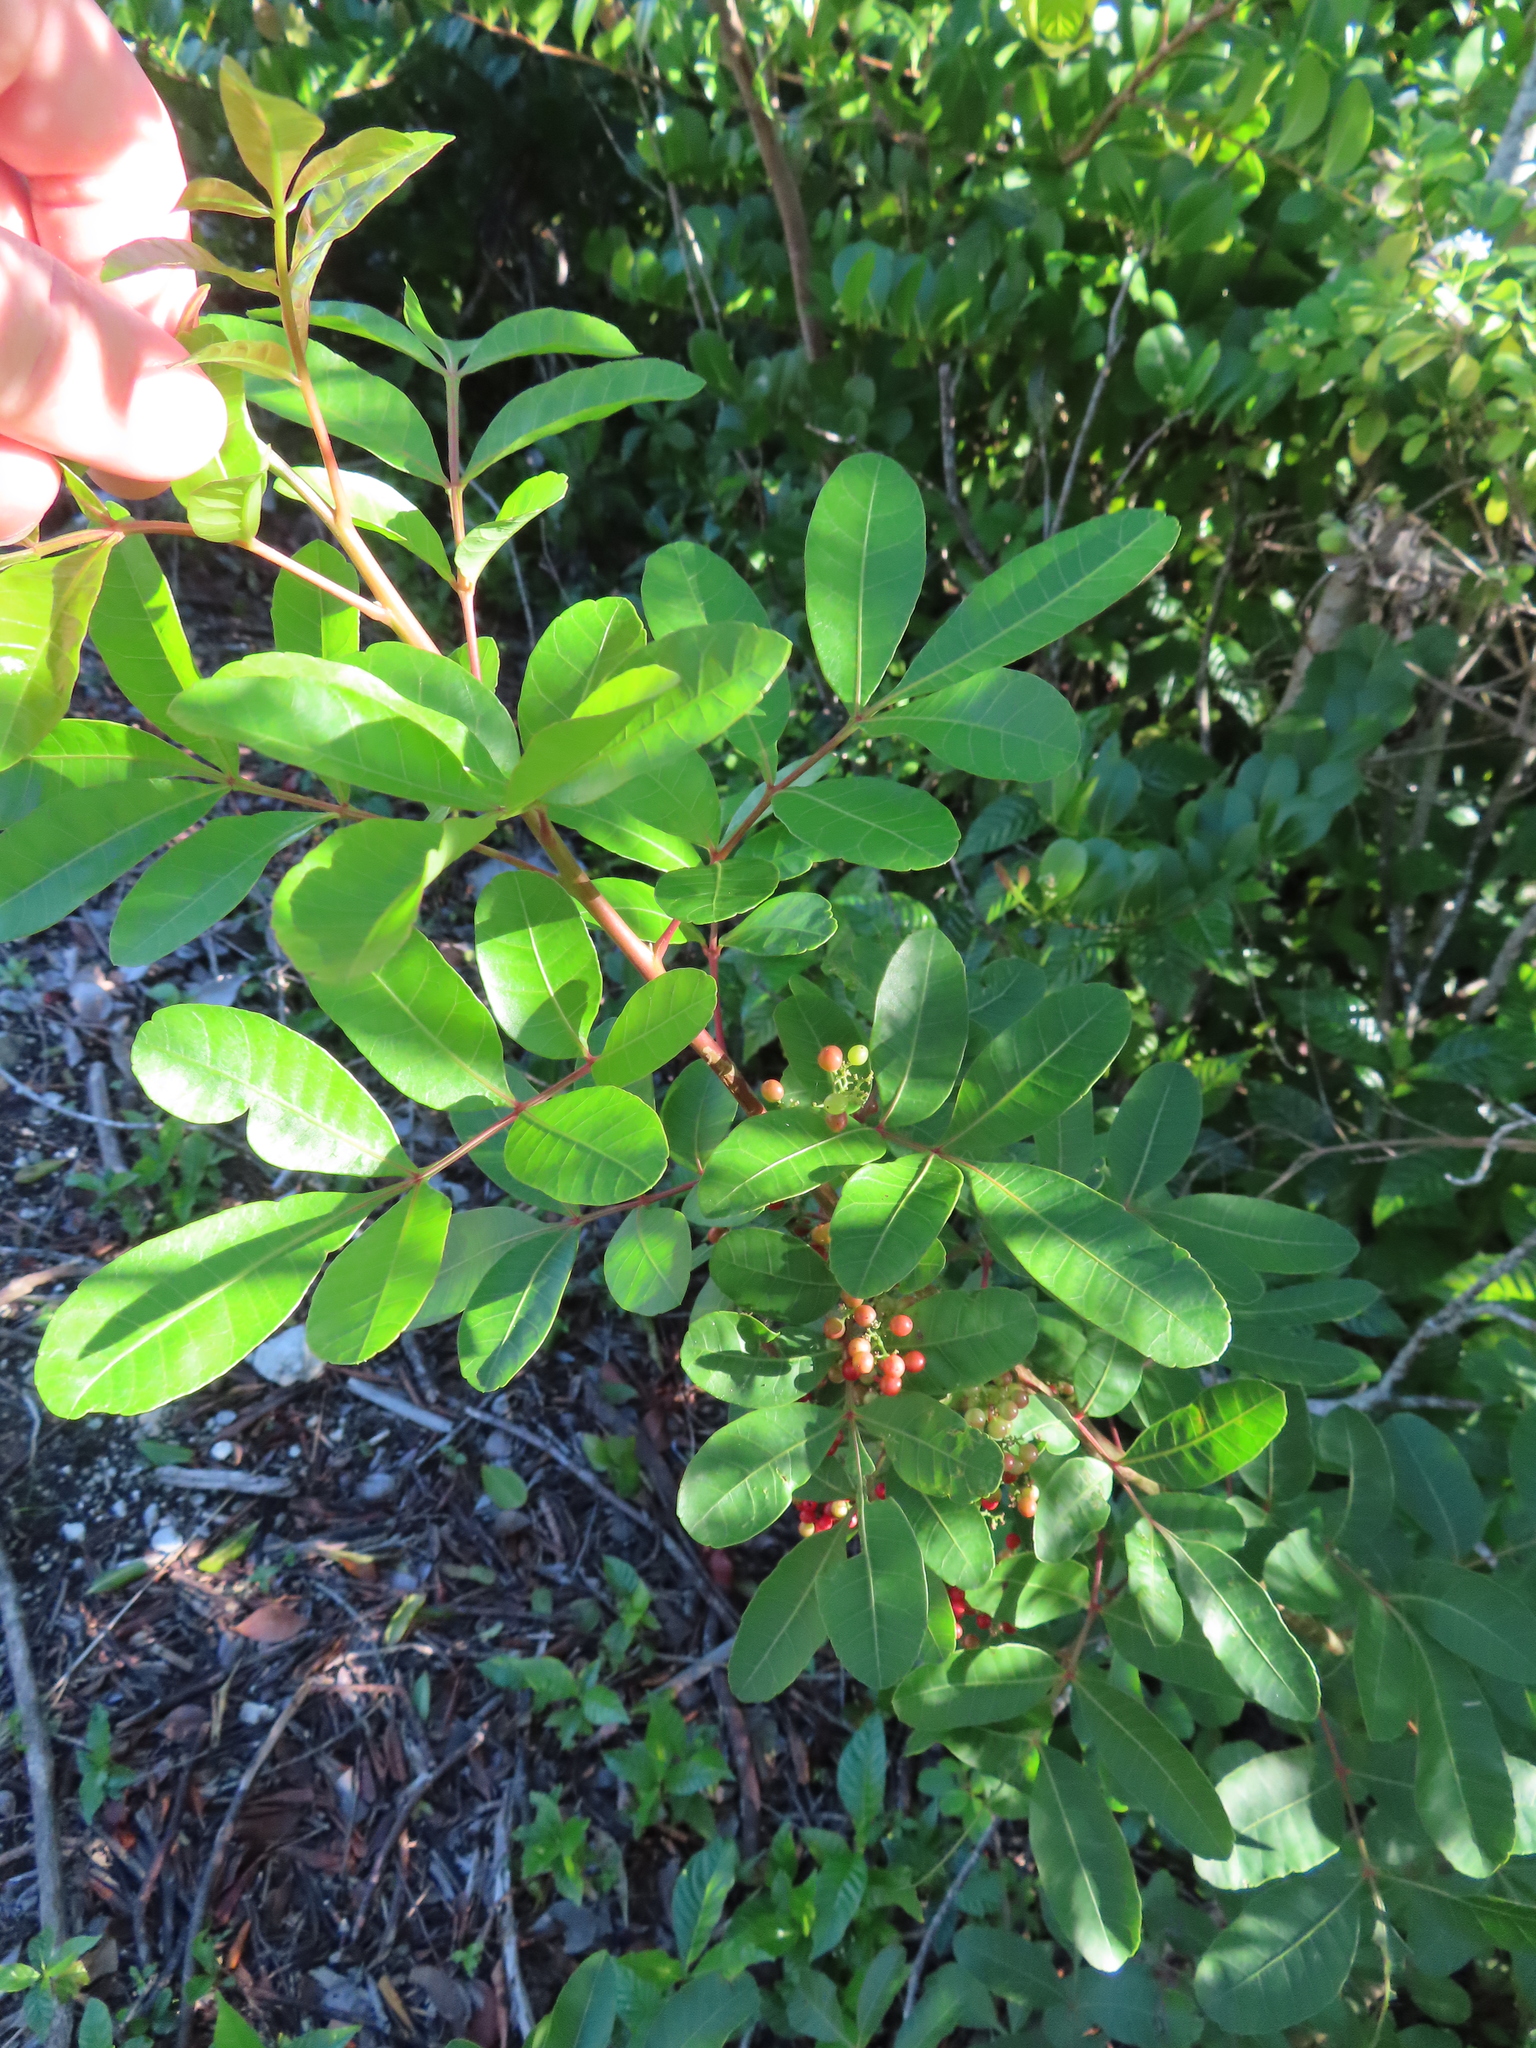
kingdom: Plantae
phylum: Tracheophyta
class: Magnoliopsida
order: Sapindales
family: Anacardiaceae
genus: Schinus
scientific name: Schinus terebinthifolia
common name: Brazilian peppertree
